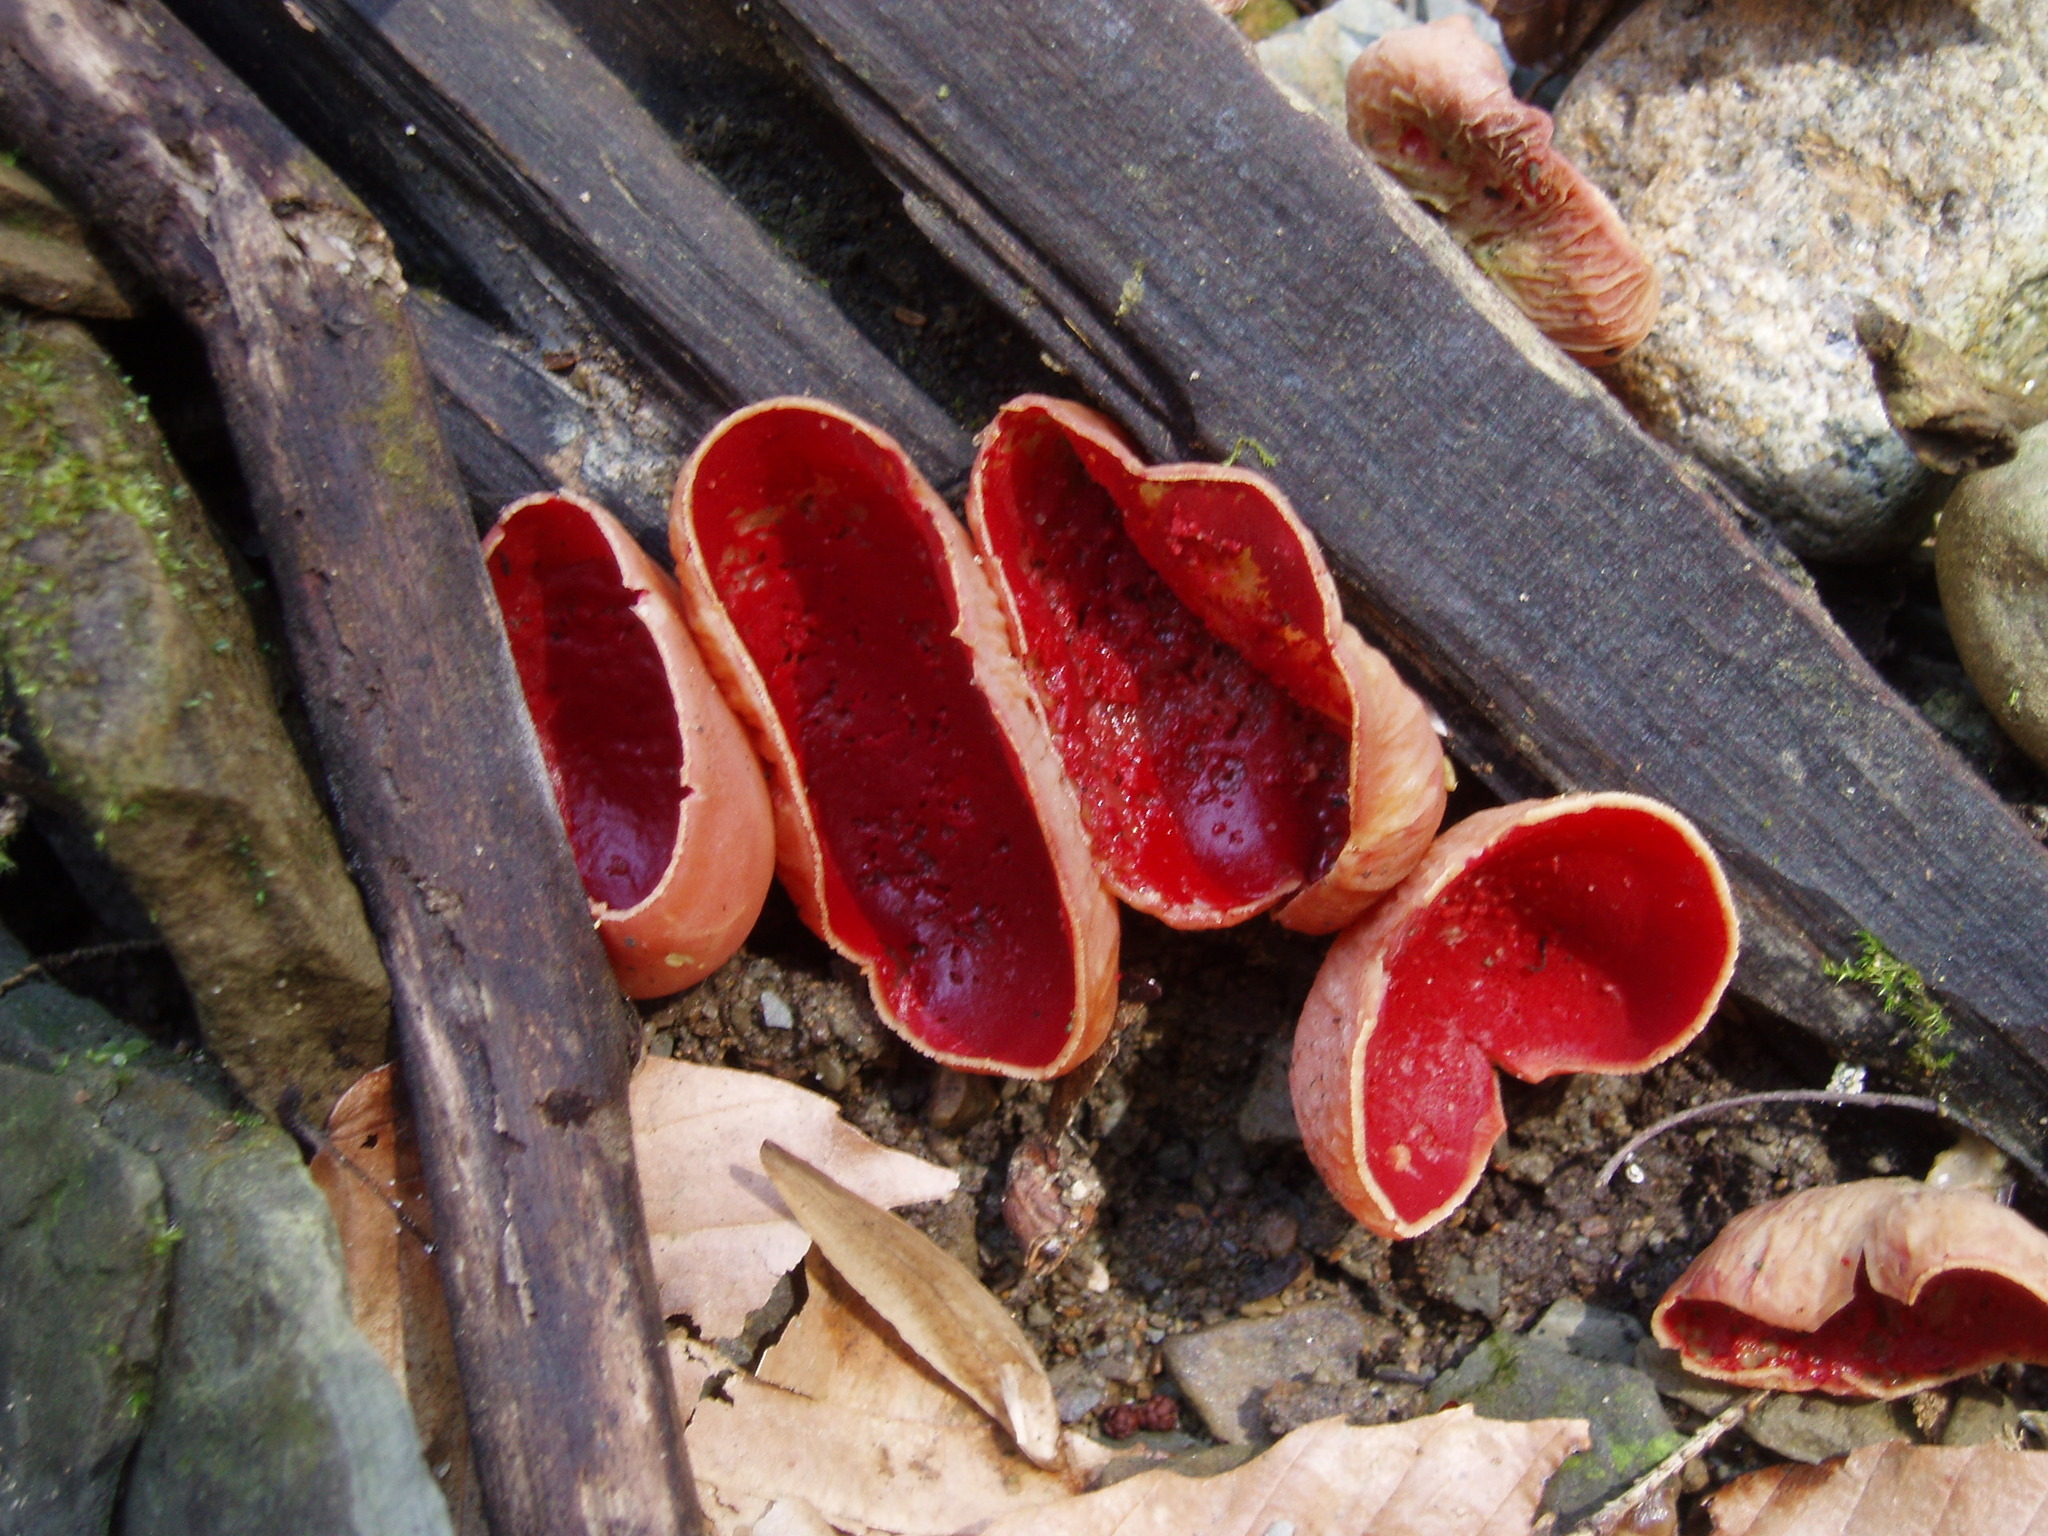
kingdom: Fungi
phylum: Ascomycota
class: Pezizomycetes
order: Pezizales
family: Sarcoscyphaceae
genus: Sarcoscypha
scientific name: Sarcoscypha austriaca
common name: Scarlet elfcup
